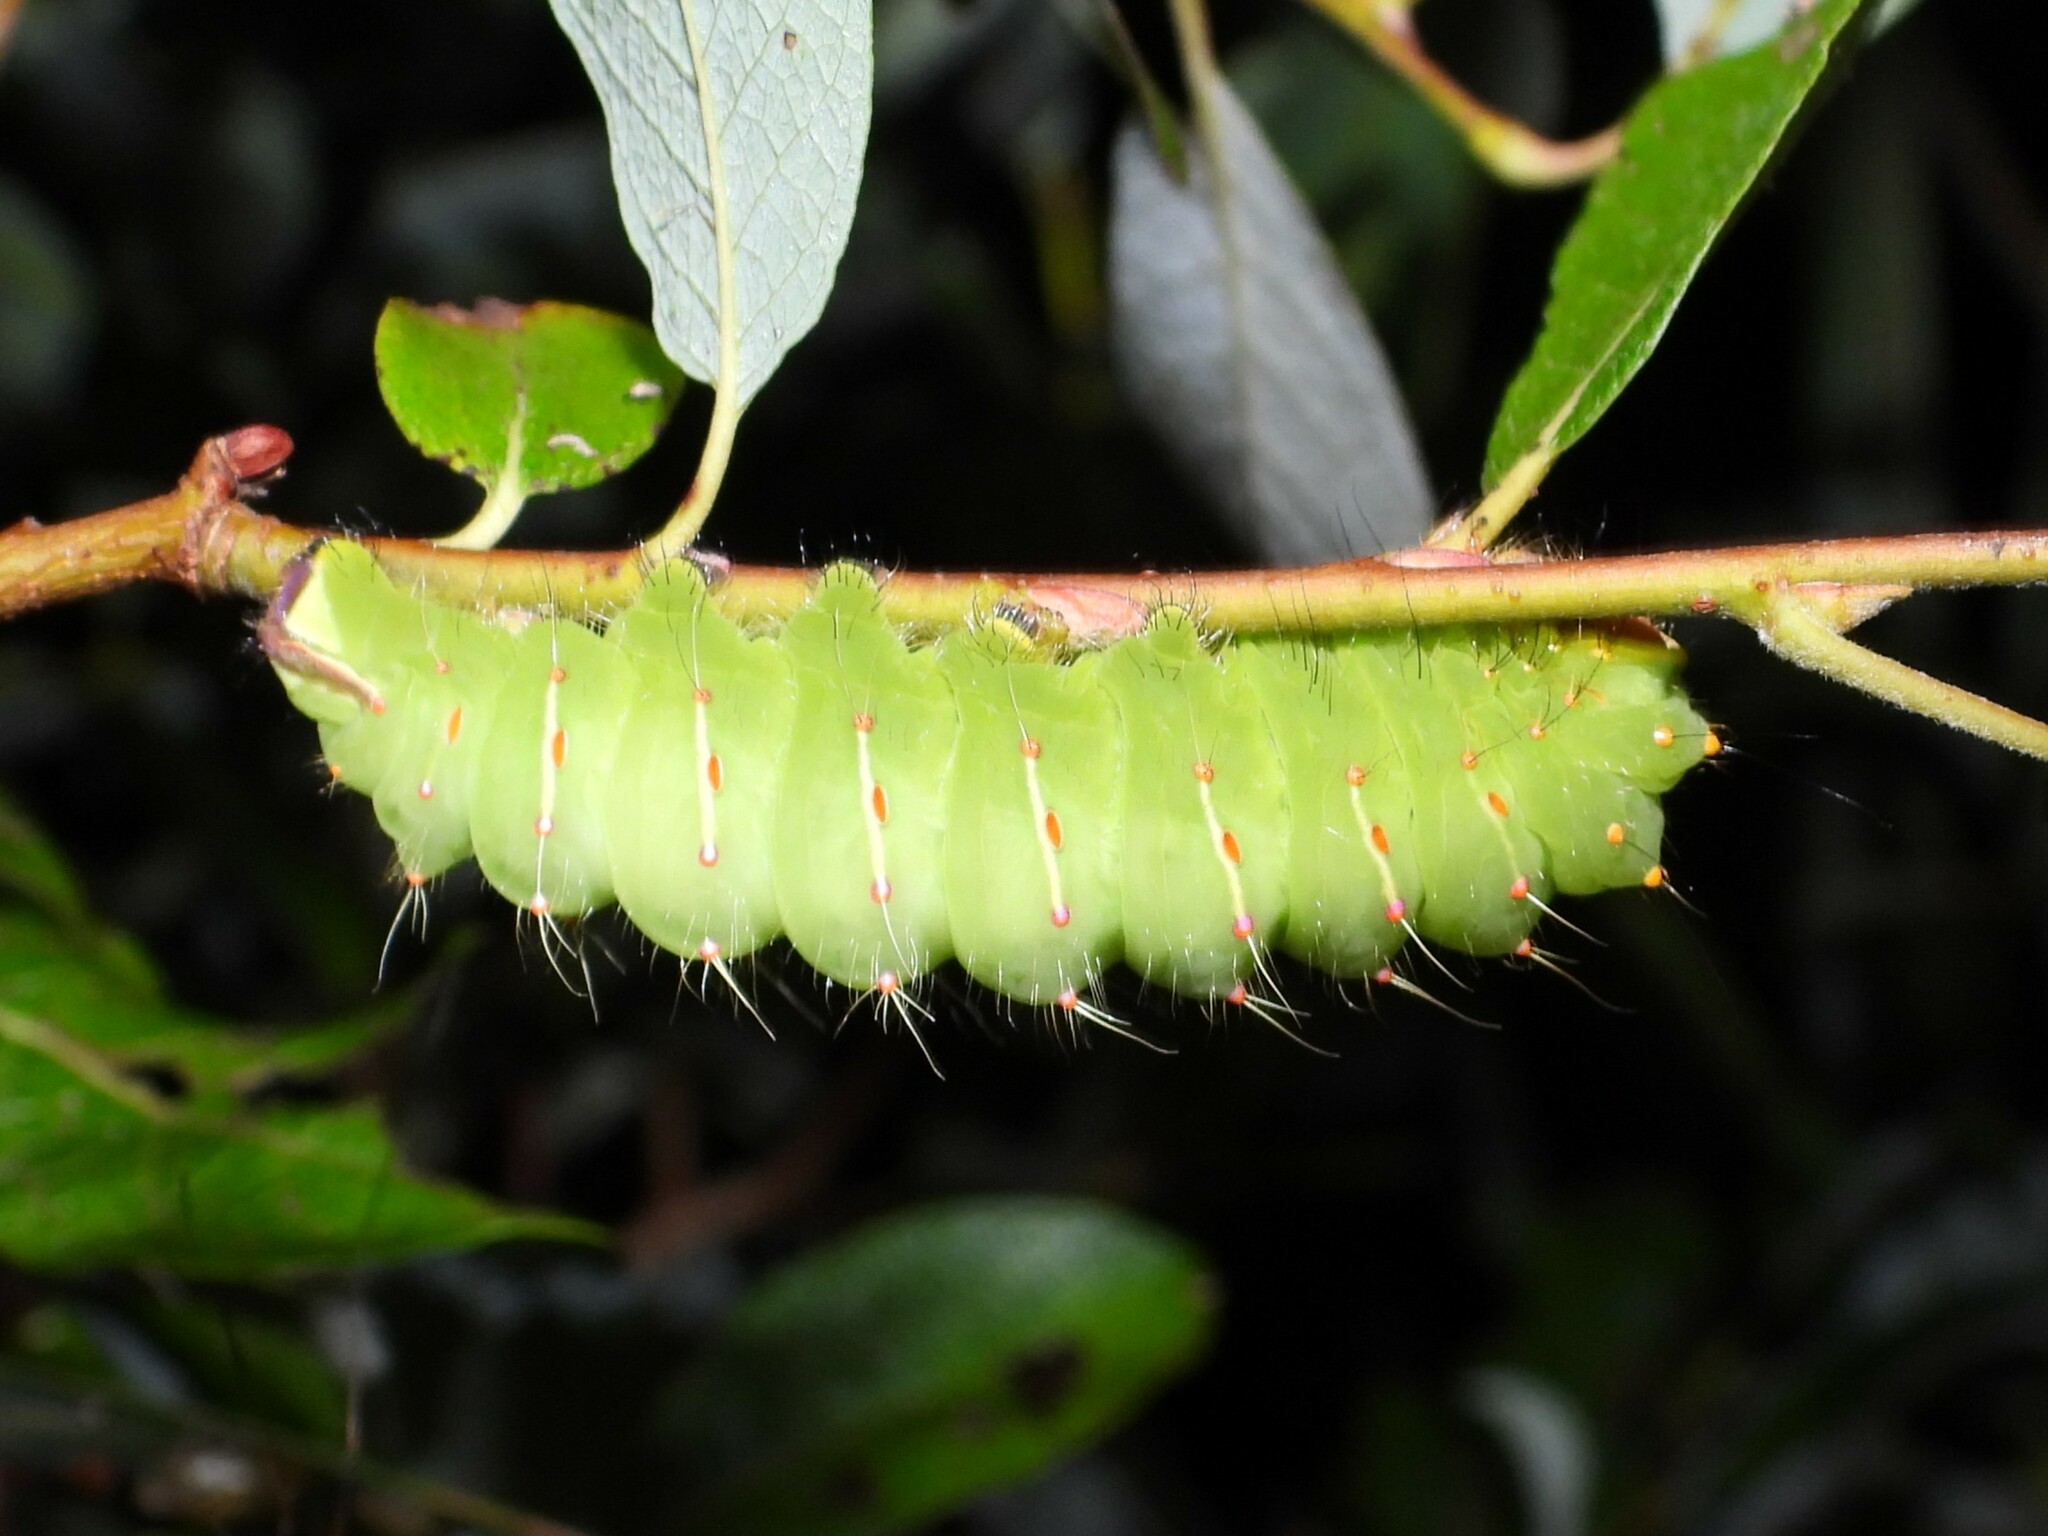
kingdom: Animalia
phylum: Arthropoda
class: Insecta
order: Lepidoptera
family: Saturniidae
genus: Antheraea
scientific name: Antheraea polyphemus
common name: Polyphemus moth
